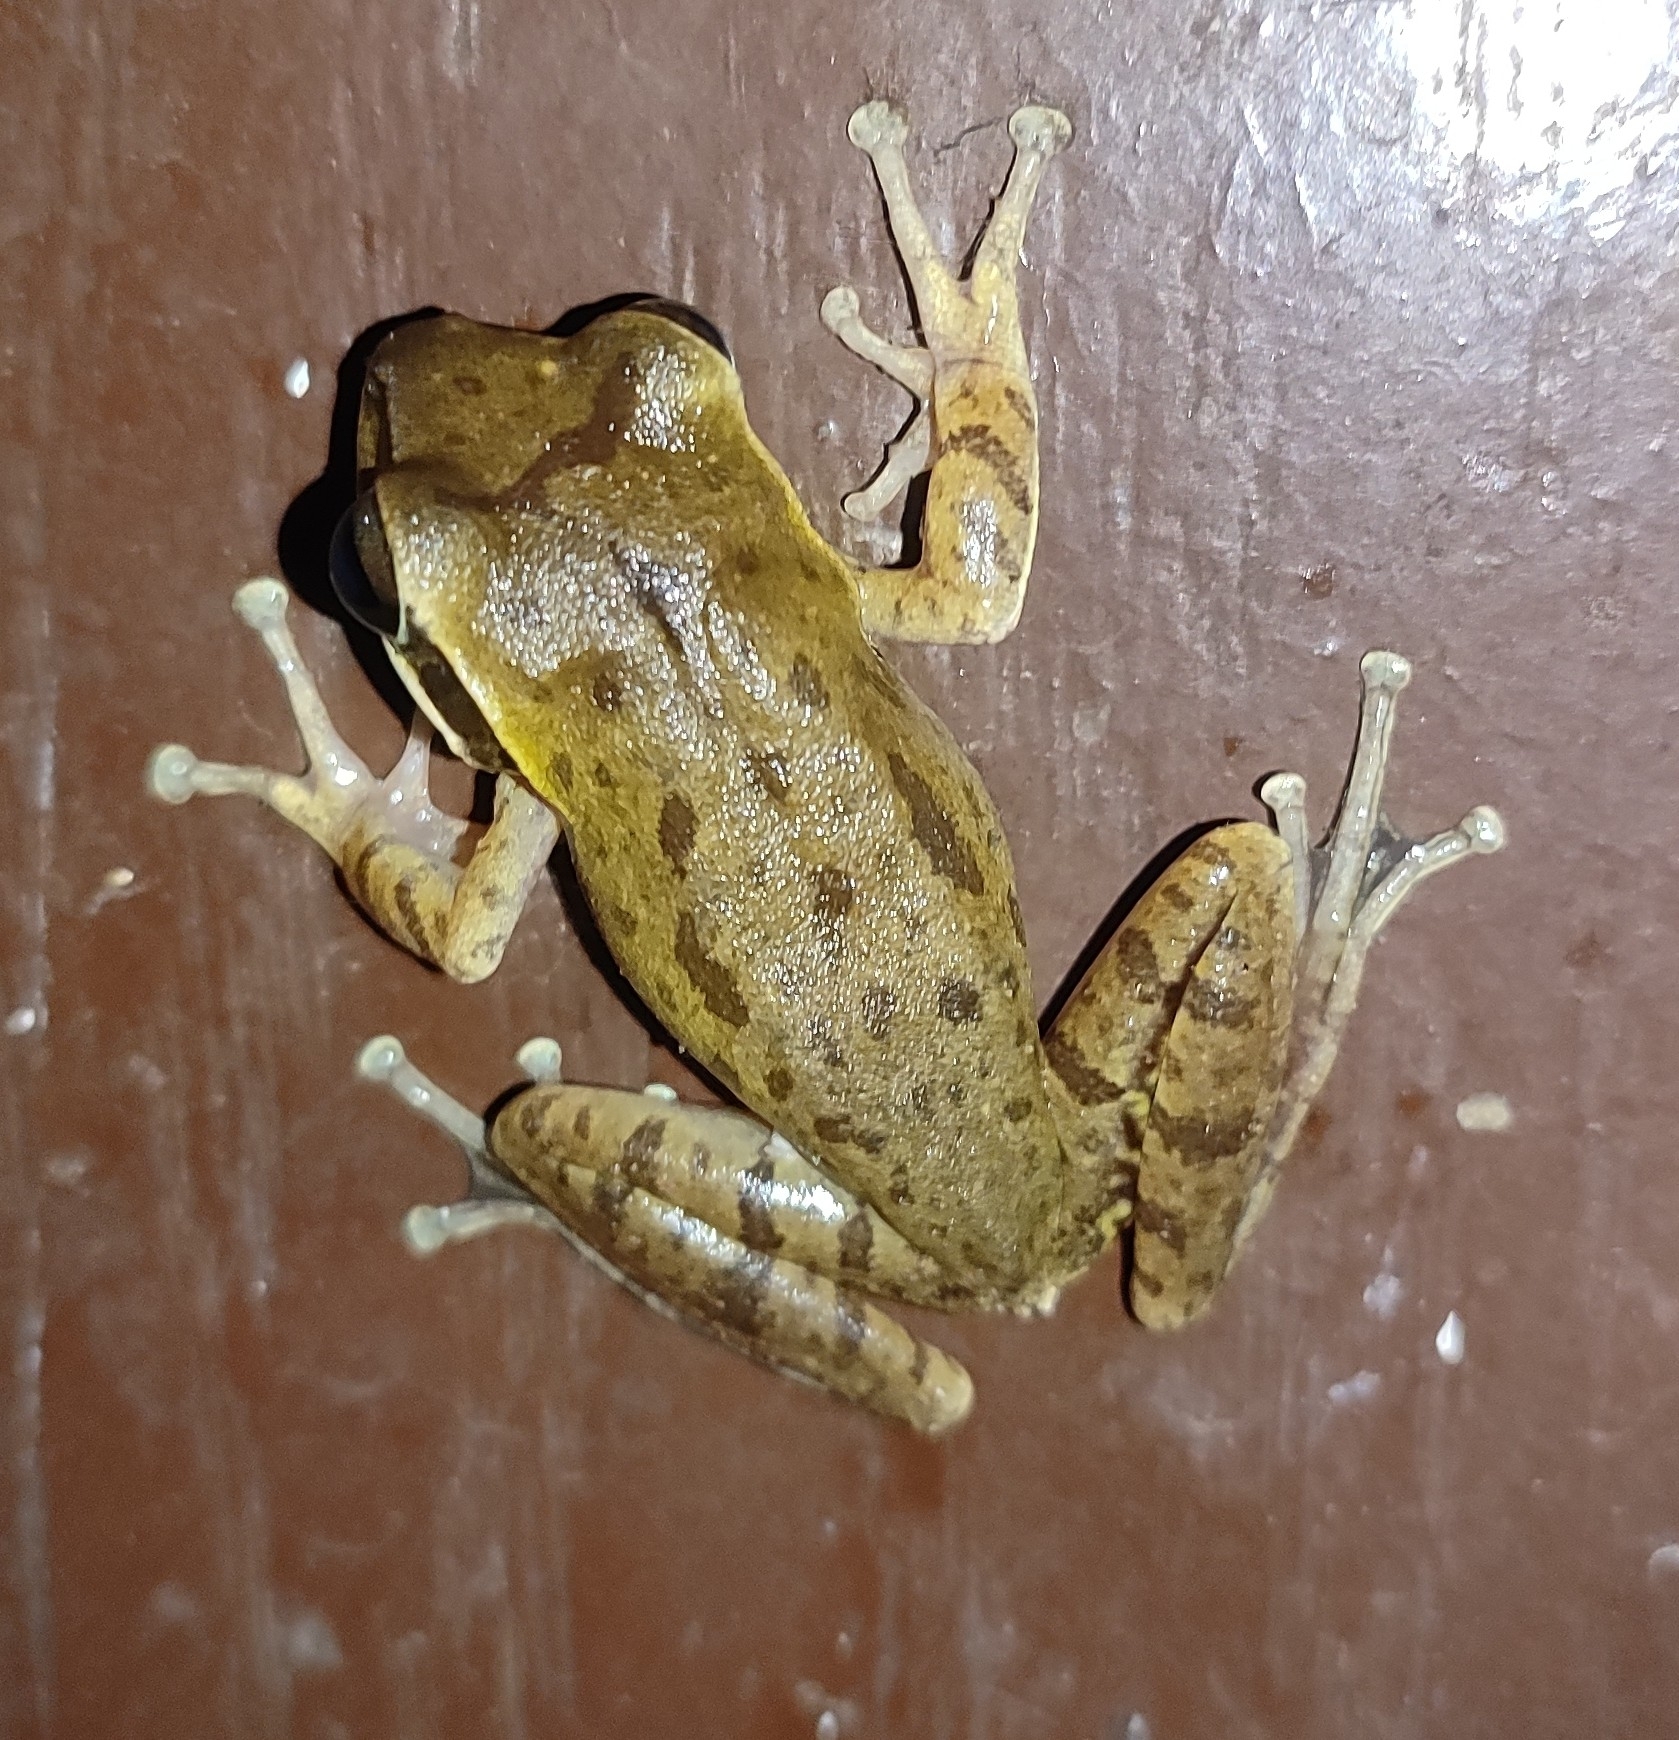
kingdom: Animalia
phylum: Chordata
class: Amphibia
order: Anura
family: Rhacophoridae
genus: Polypedates
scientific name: Polypedates maculatus
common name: Himalayan tree frog
